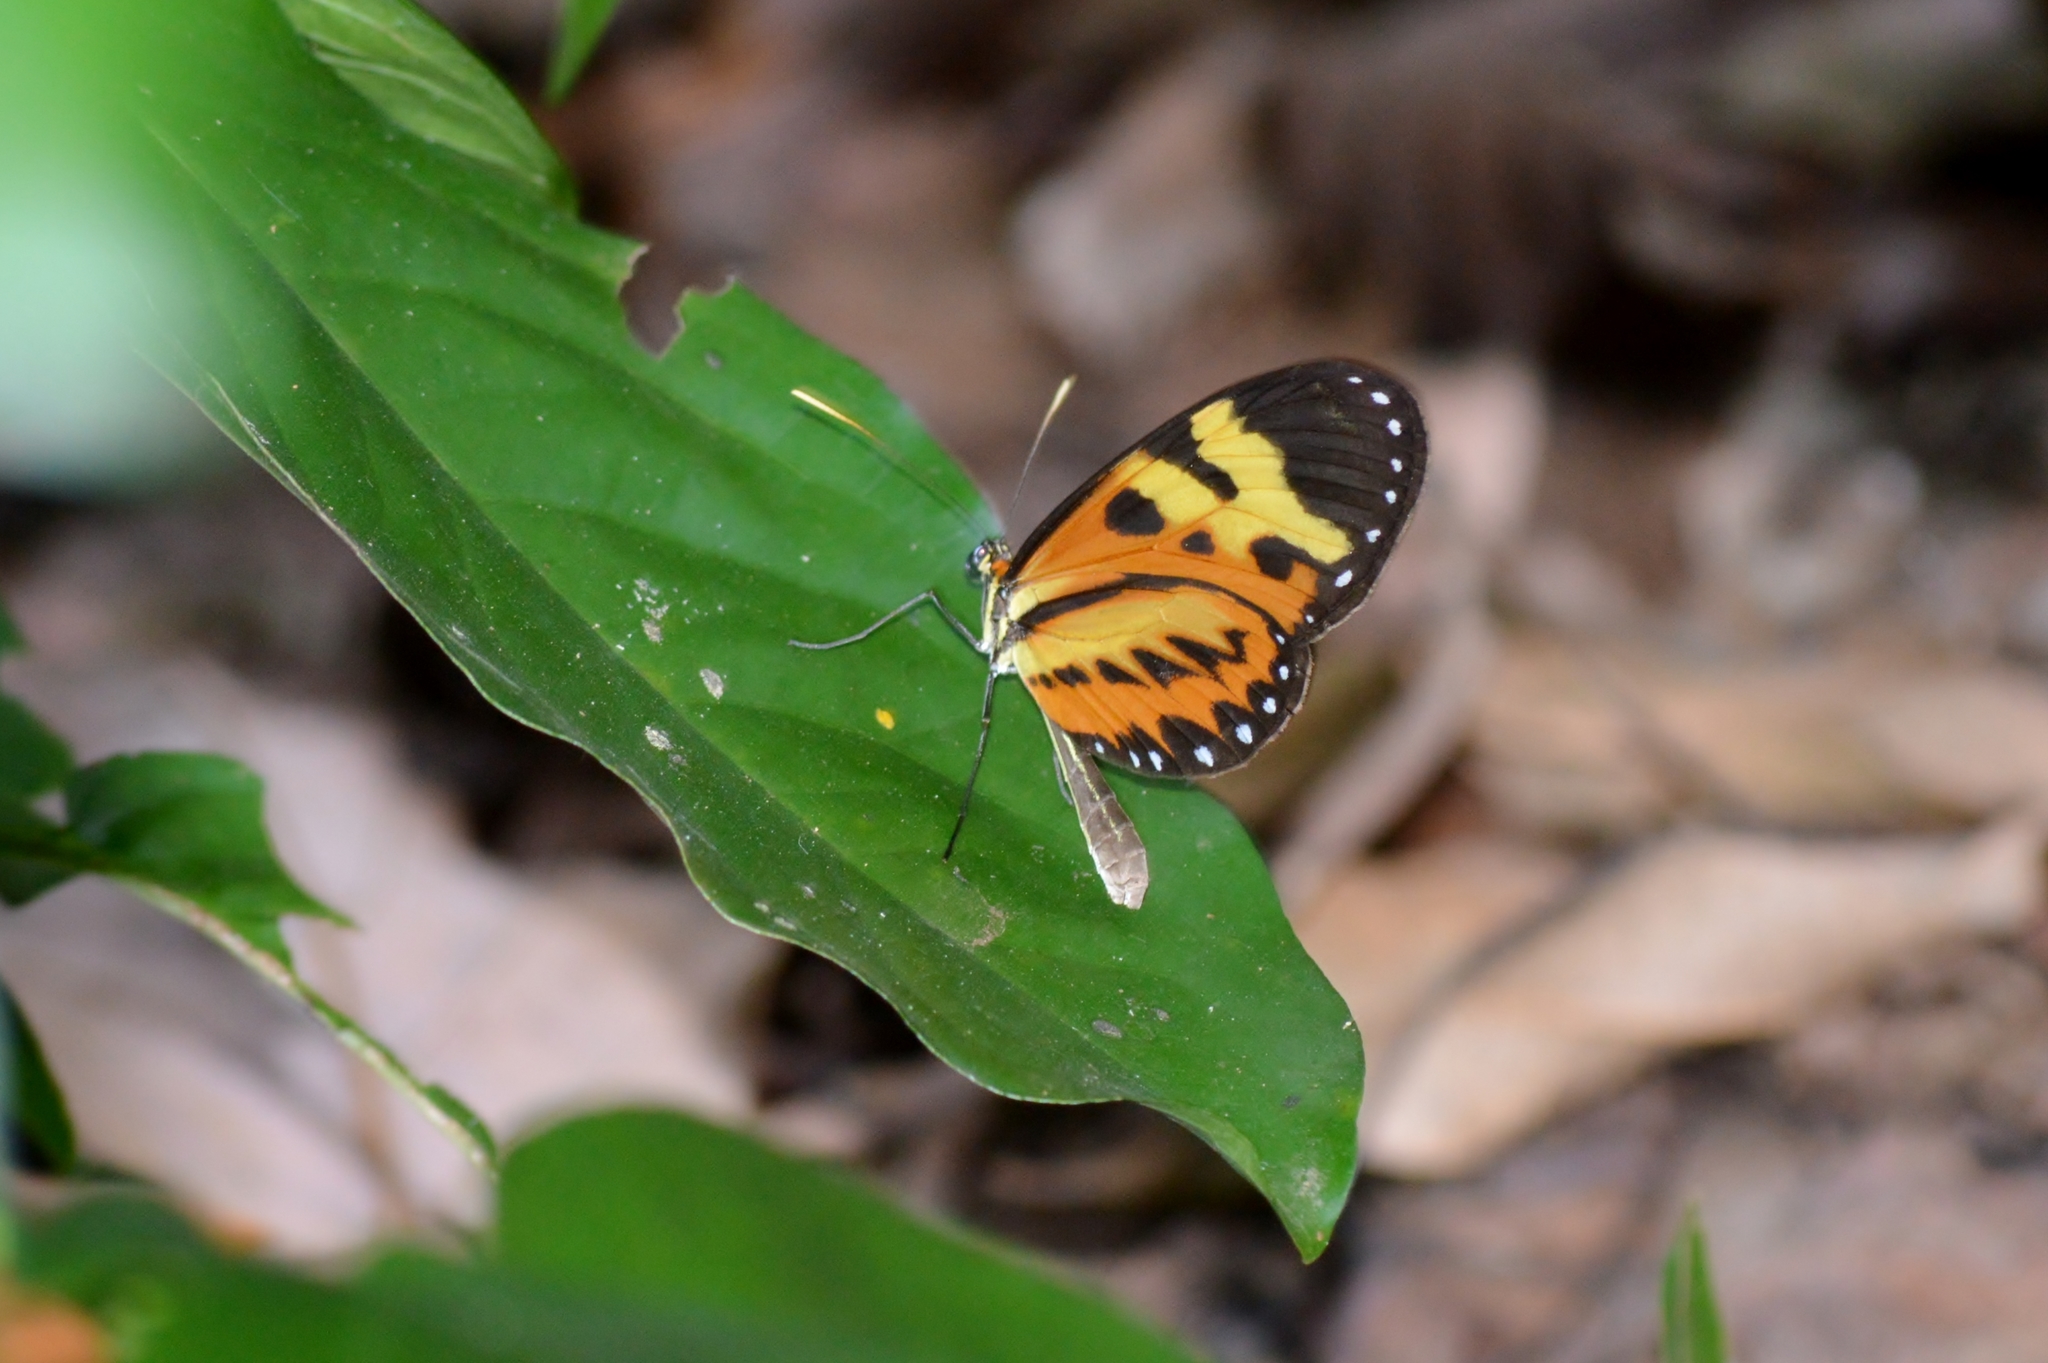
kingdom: Animalia
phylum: Arthropoda
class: Insecta
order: Lepidoptera
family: Nymphalidae
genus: Mechanitis
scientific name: Mechanitis polymnia
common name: Disturbed tigerwing
